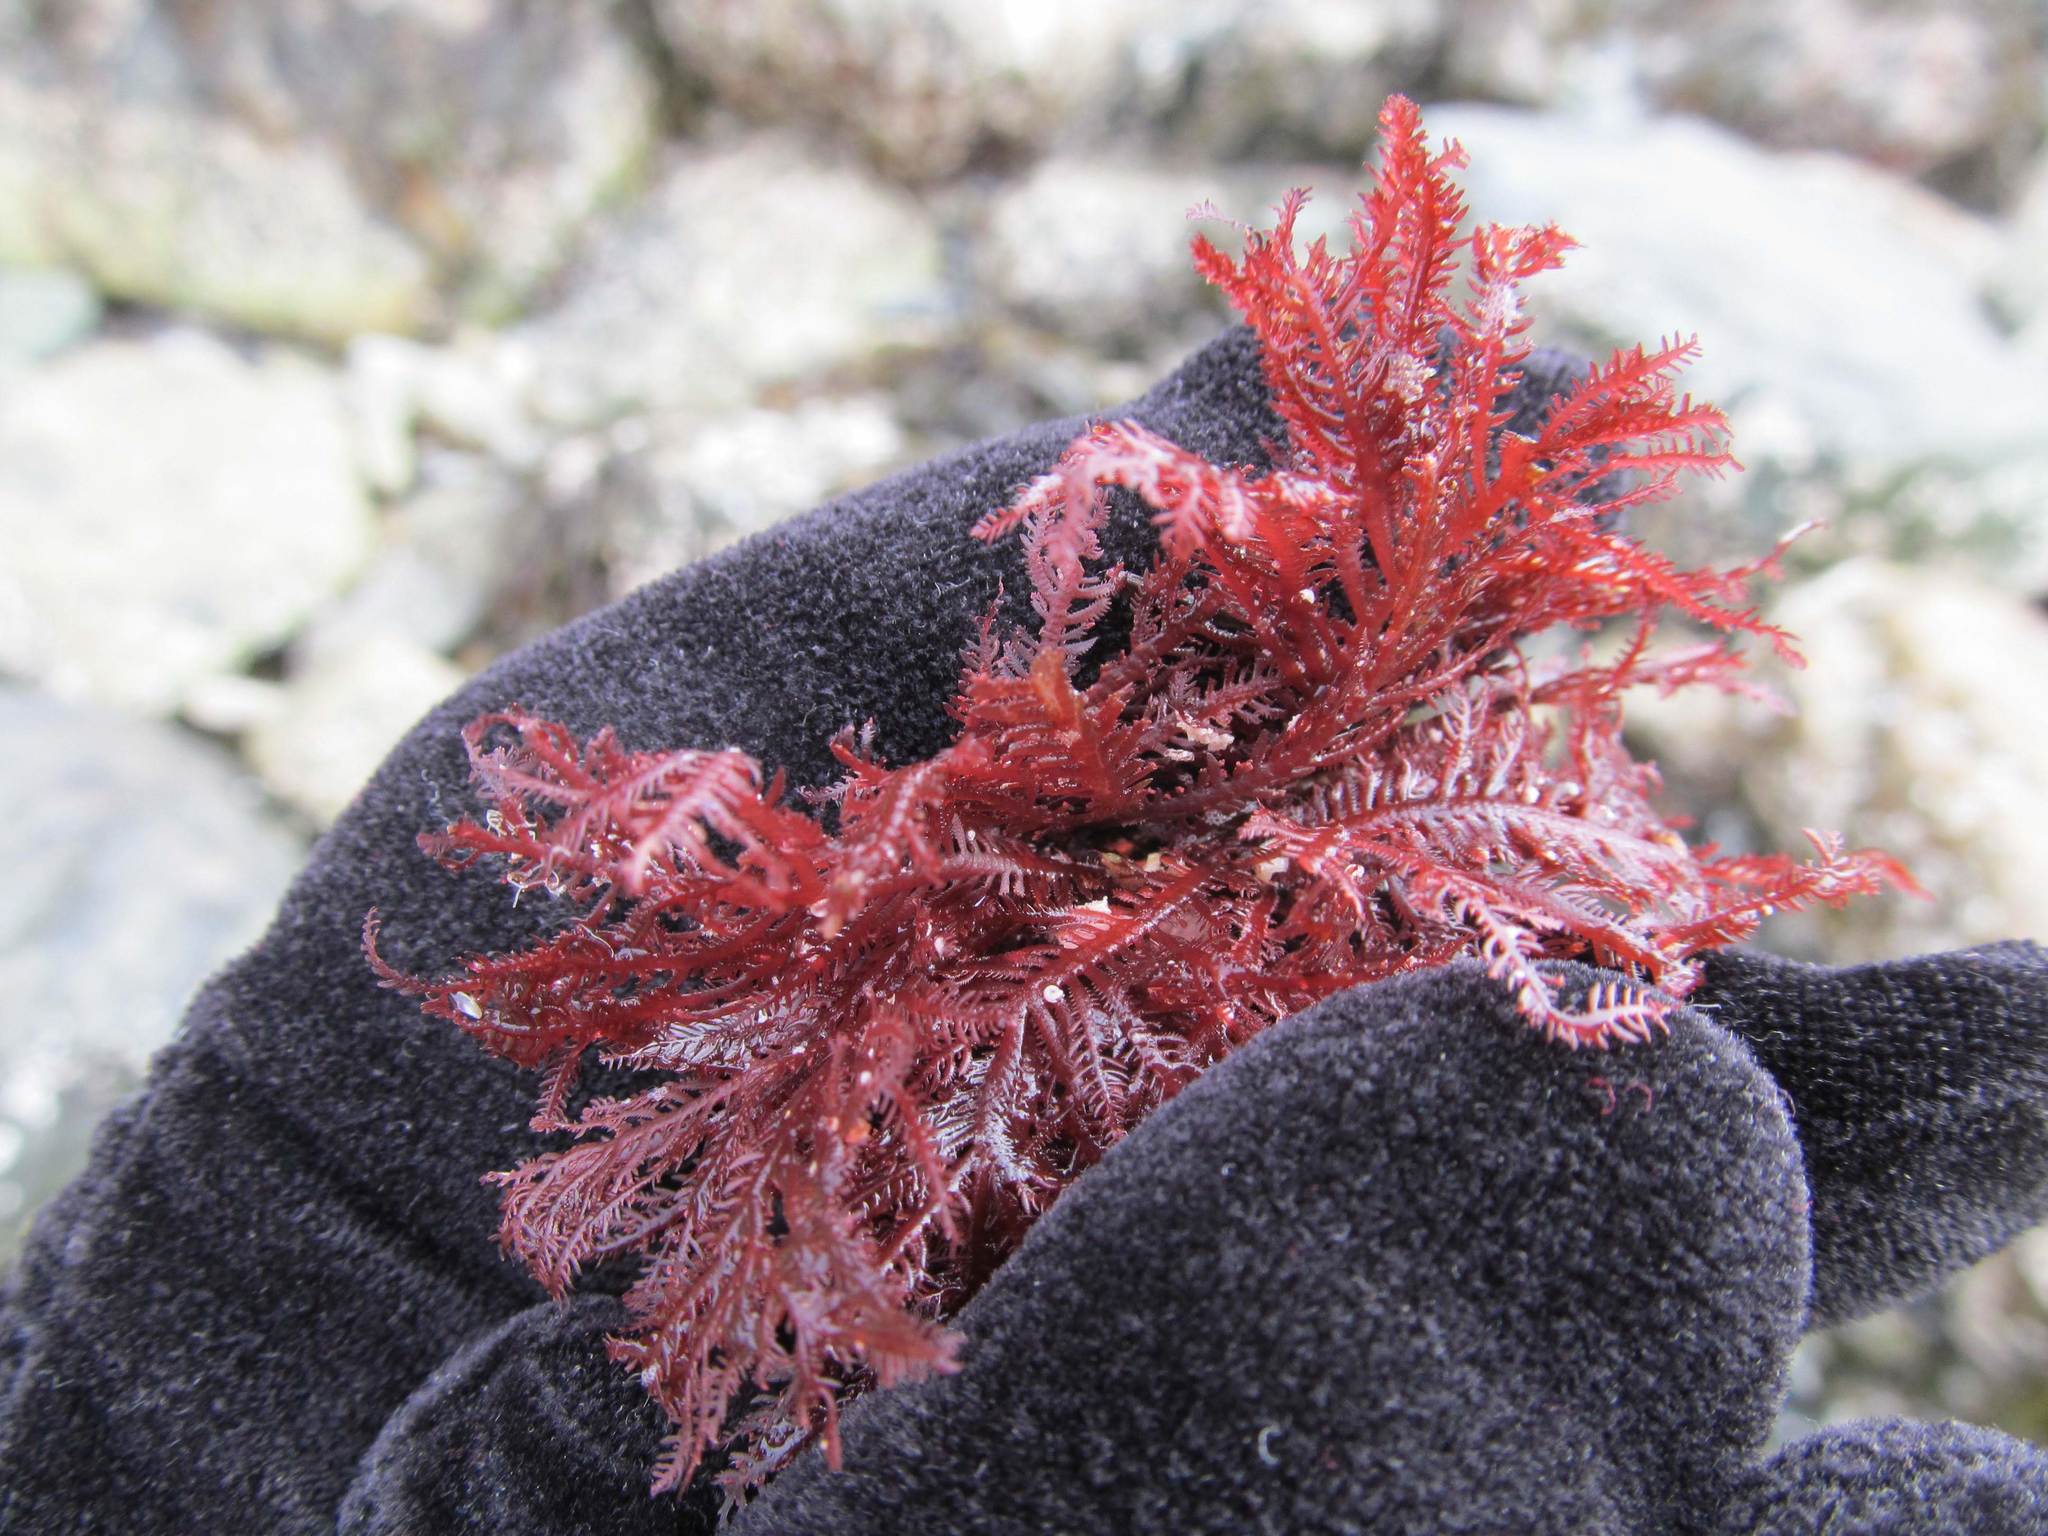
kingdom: Plantae
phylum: Rhodophyta
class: Florideophyceae
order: Ceramiales
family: Wrangeliaceae
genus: Ptilota
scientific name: Ptilota serrata
